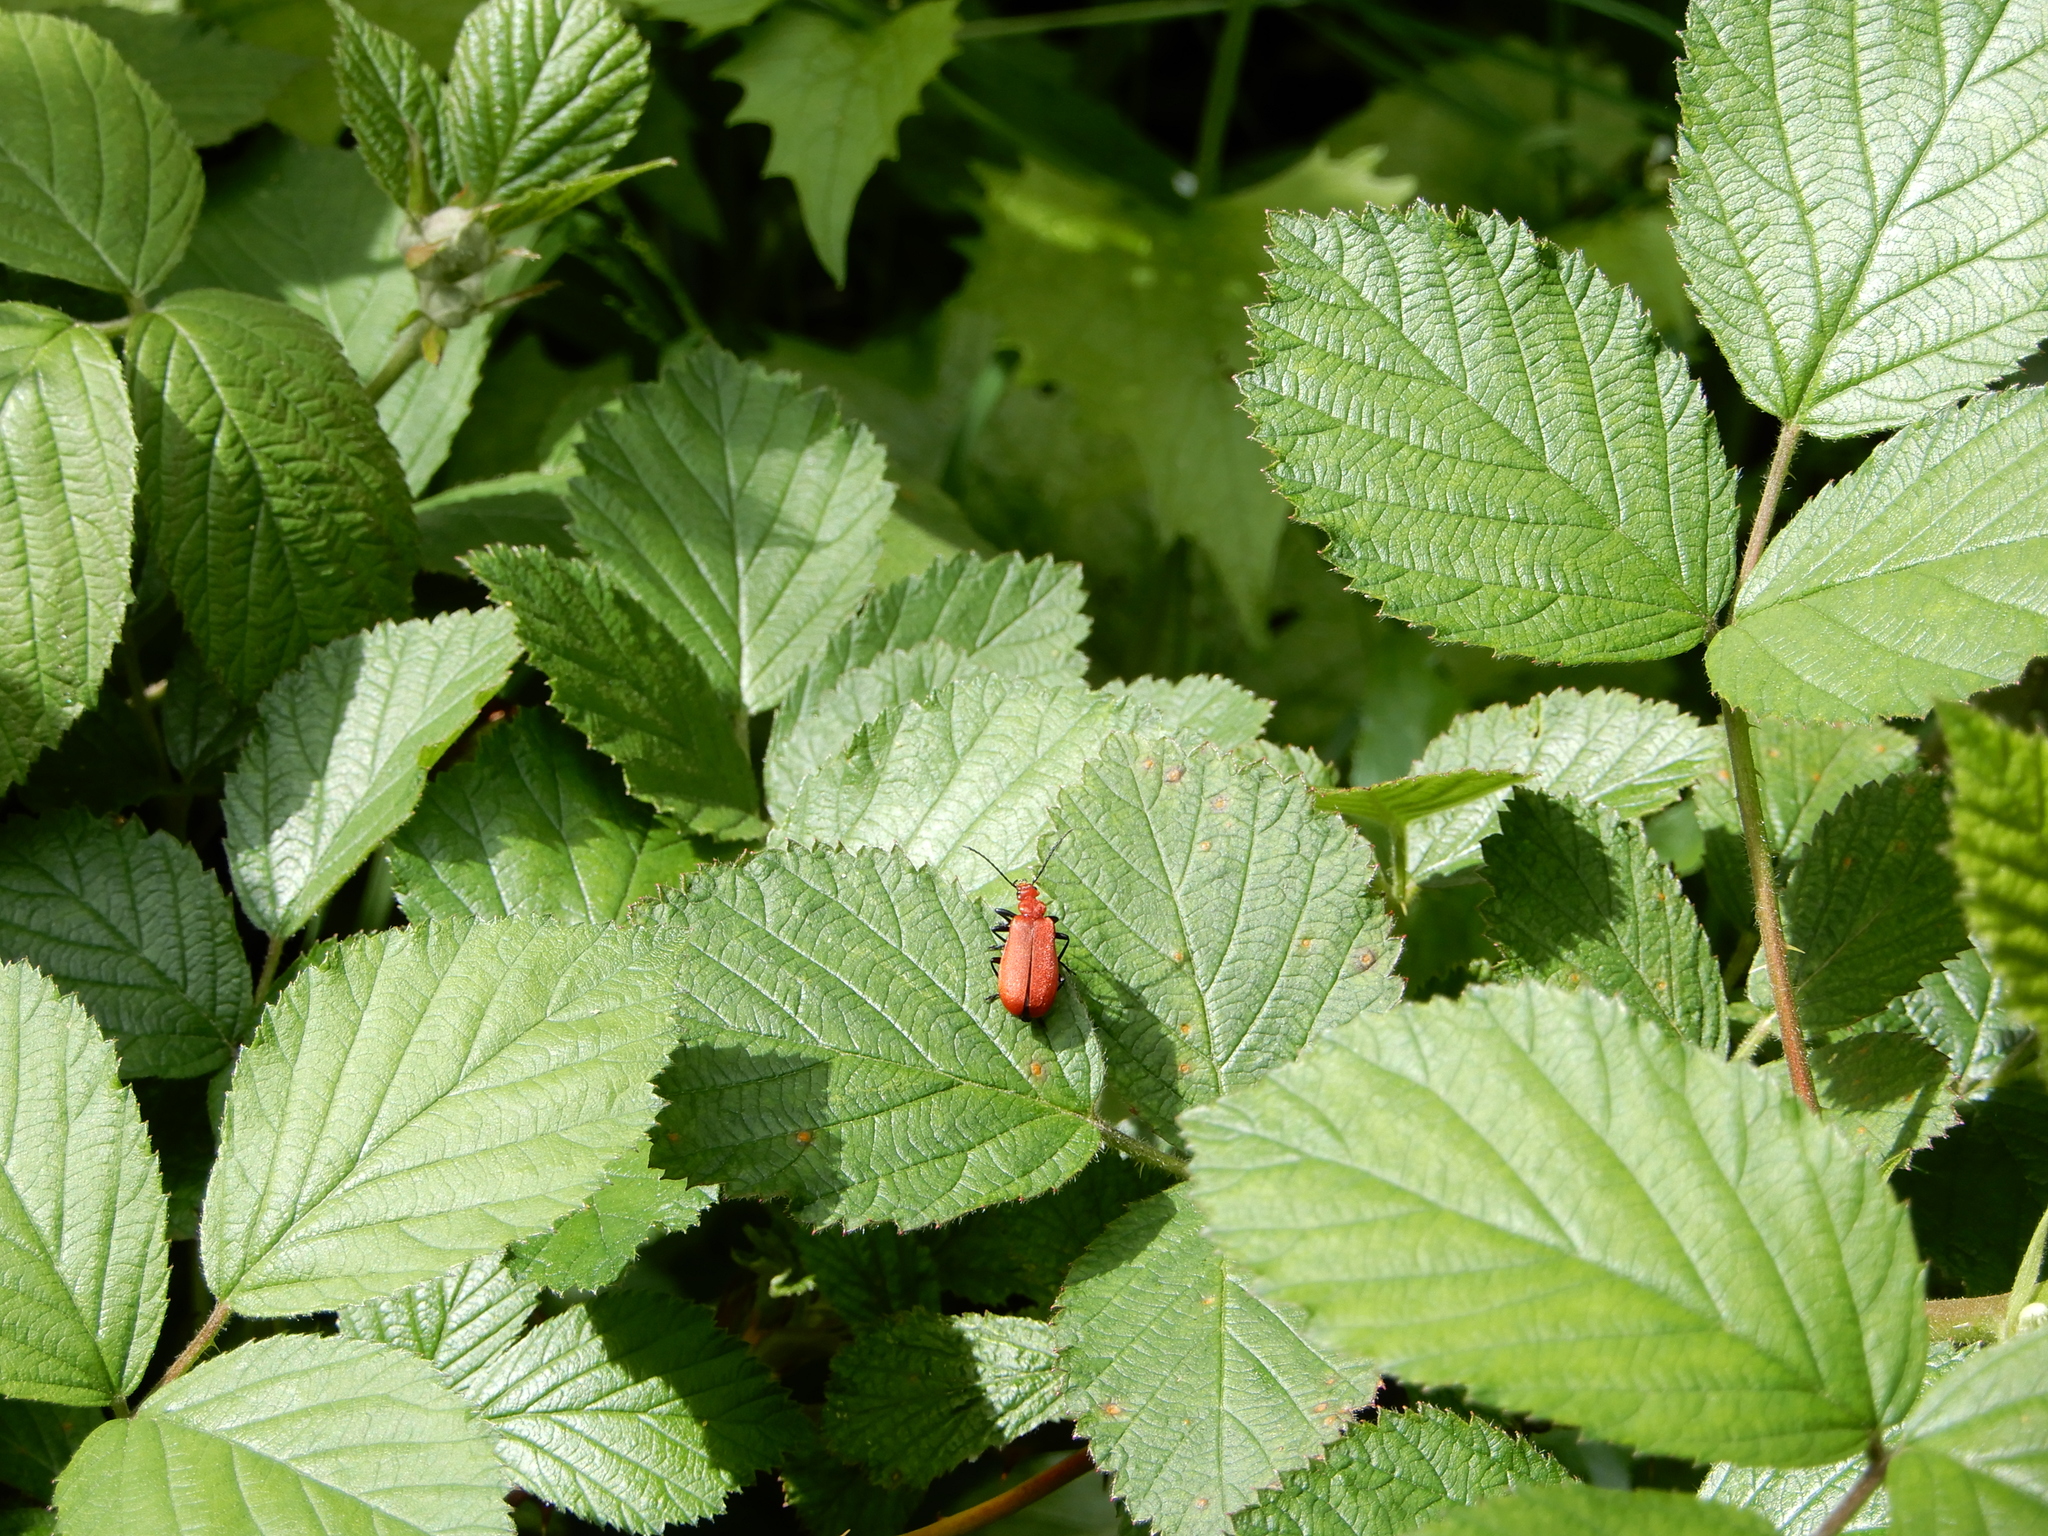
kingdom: Animalia
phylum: Arthropoda
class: Insecta
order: Coleoptera
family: Pyrochroidae
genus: Pyrochroa
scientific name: Pyrochroa serraticornis
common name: Red-headed cardinal beetle
